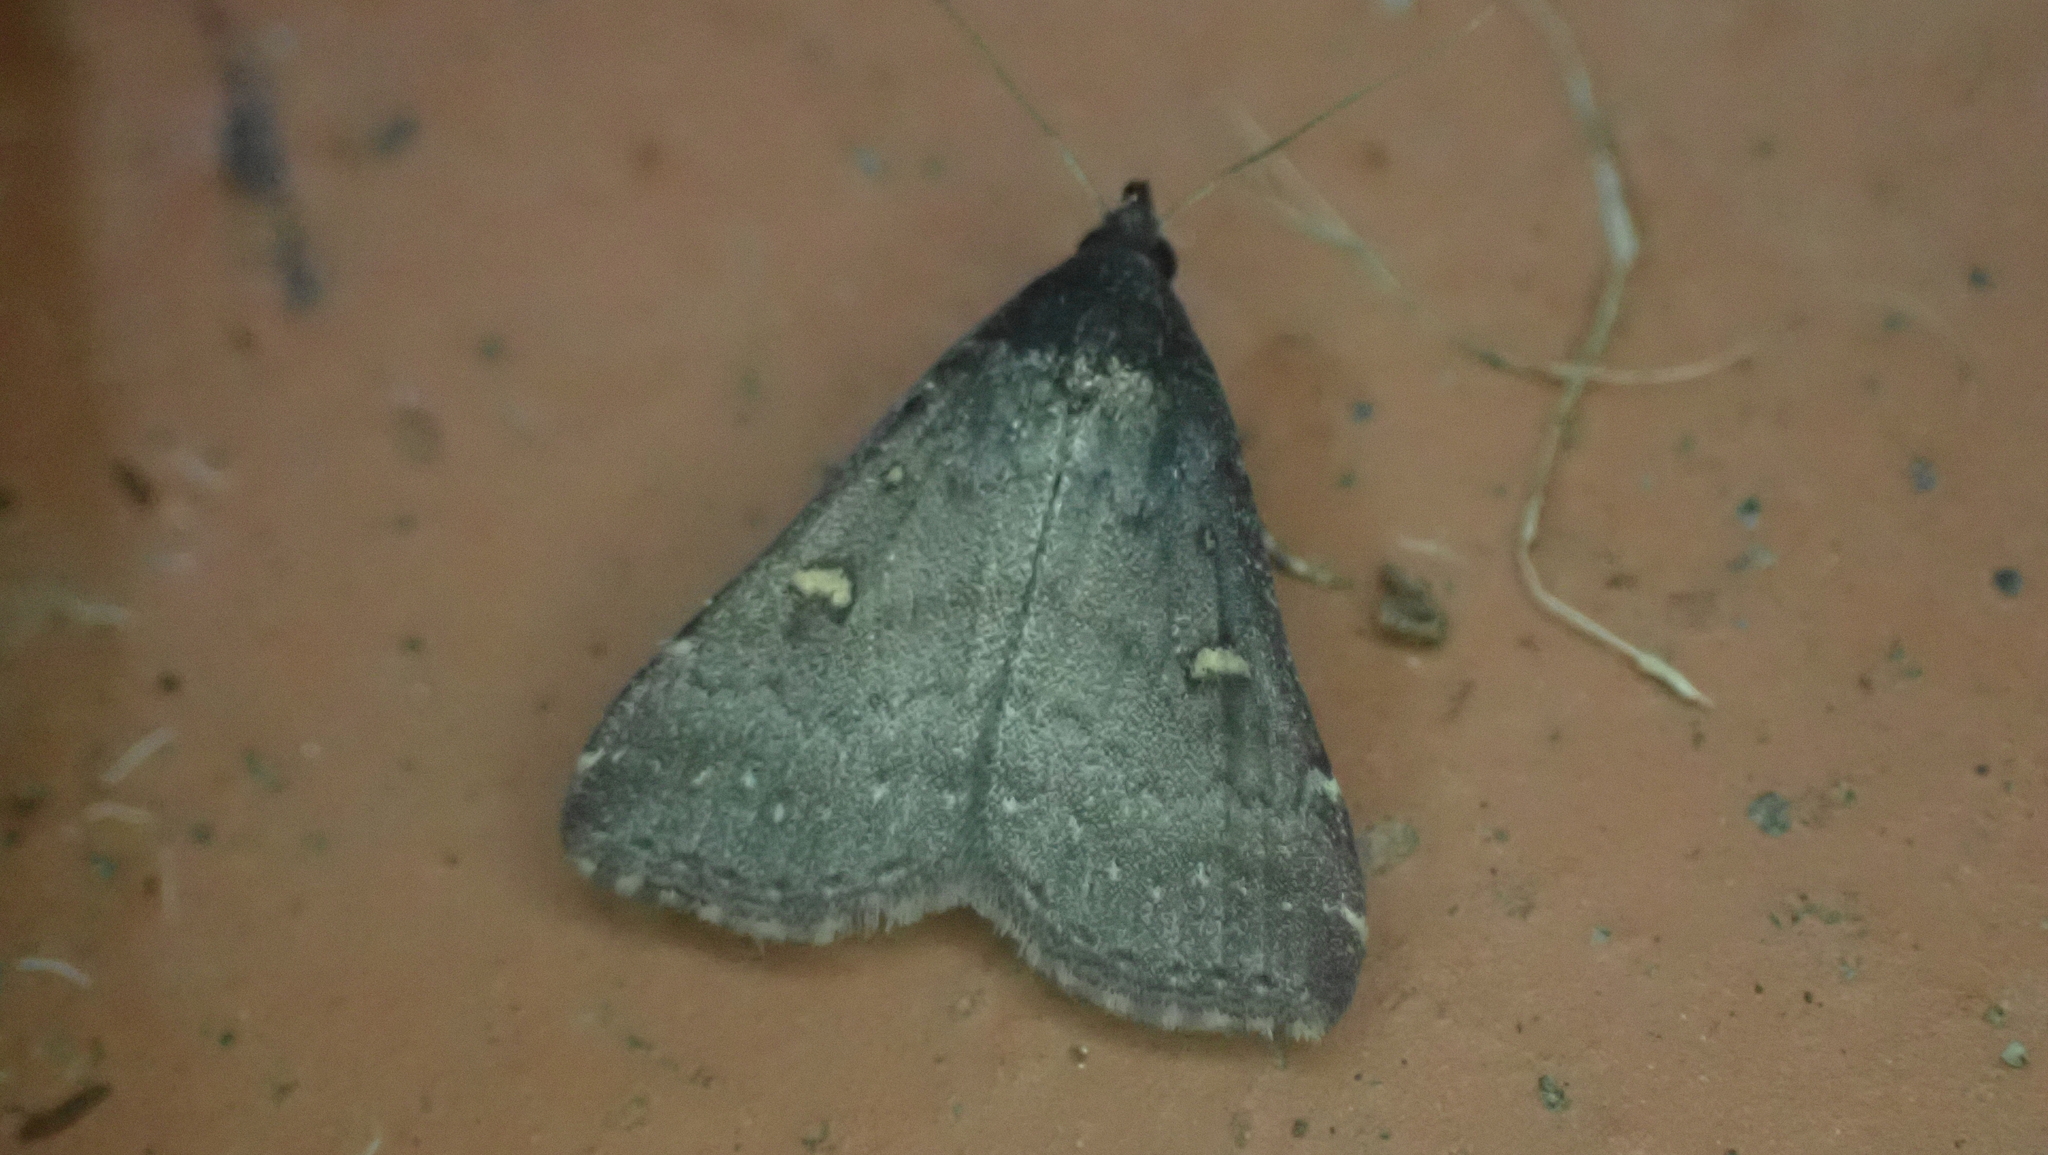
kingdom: Animalia
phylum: Arthropoda
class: Insecta
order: Lepidoptera
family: Erebidae
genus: Tetanolita
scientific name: Tetanolita mynesalis
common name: Smoky tetanolita moth
